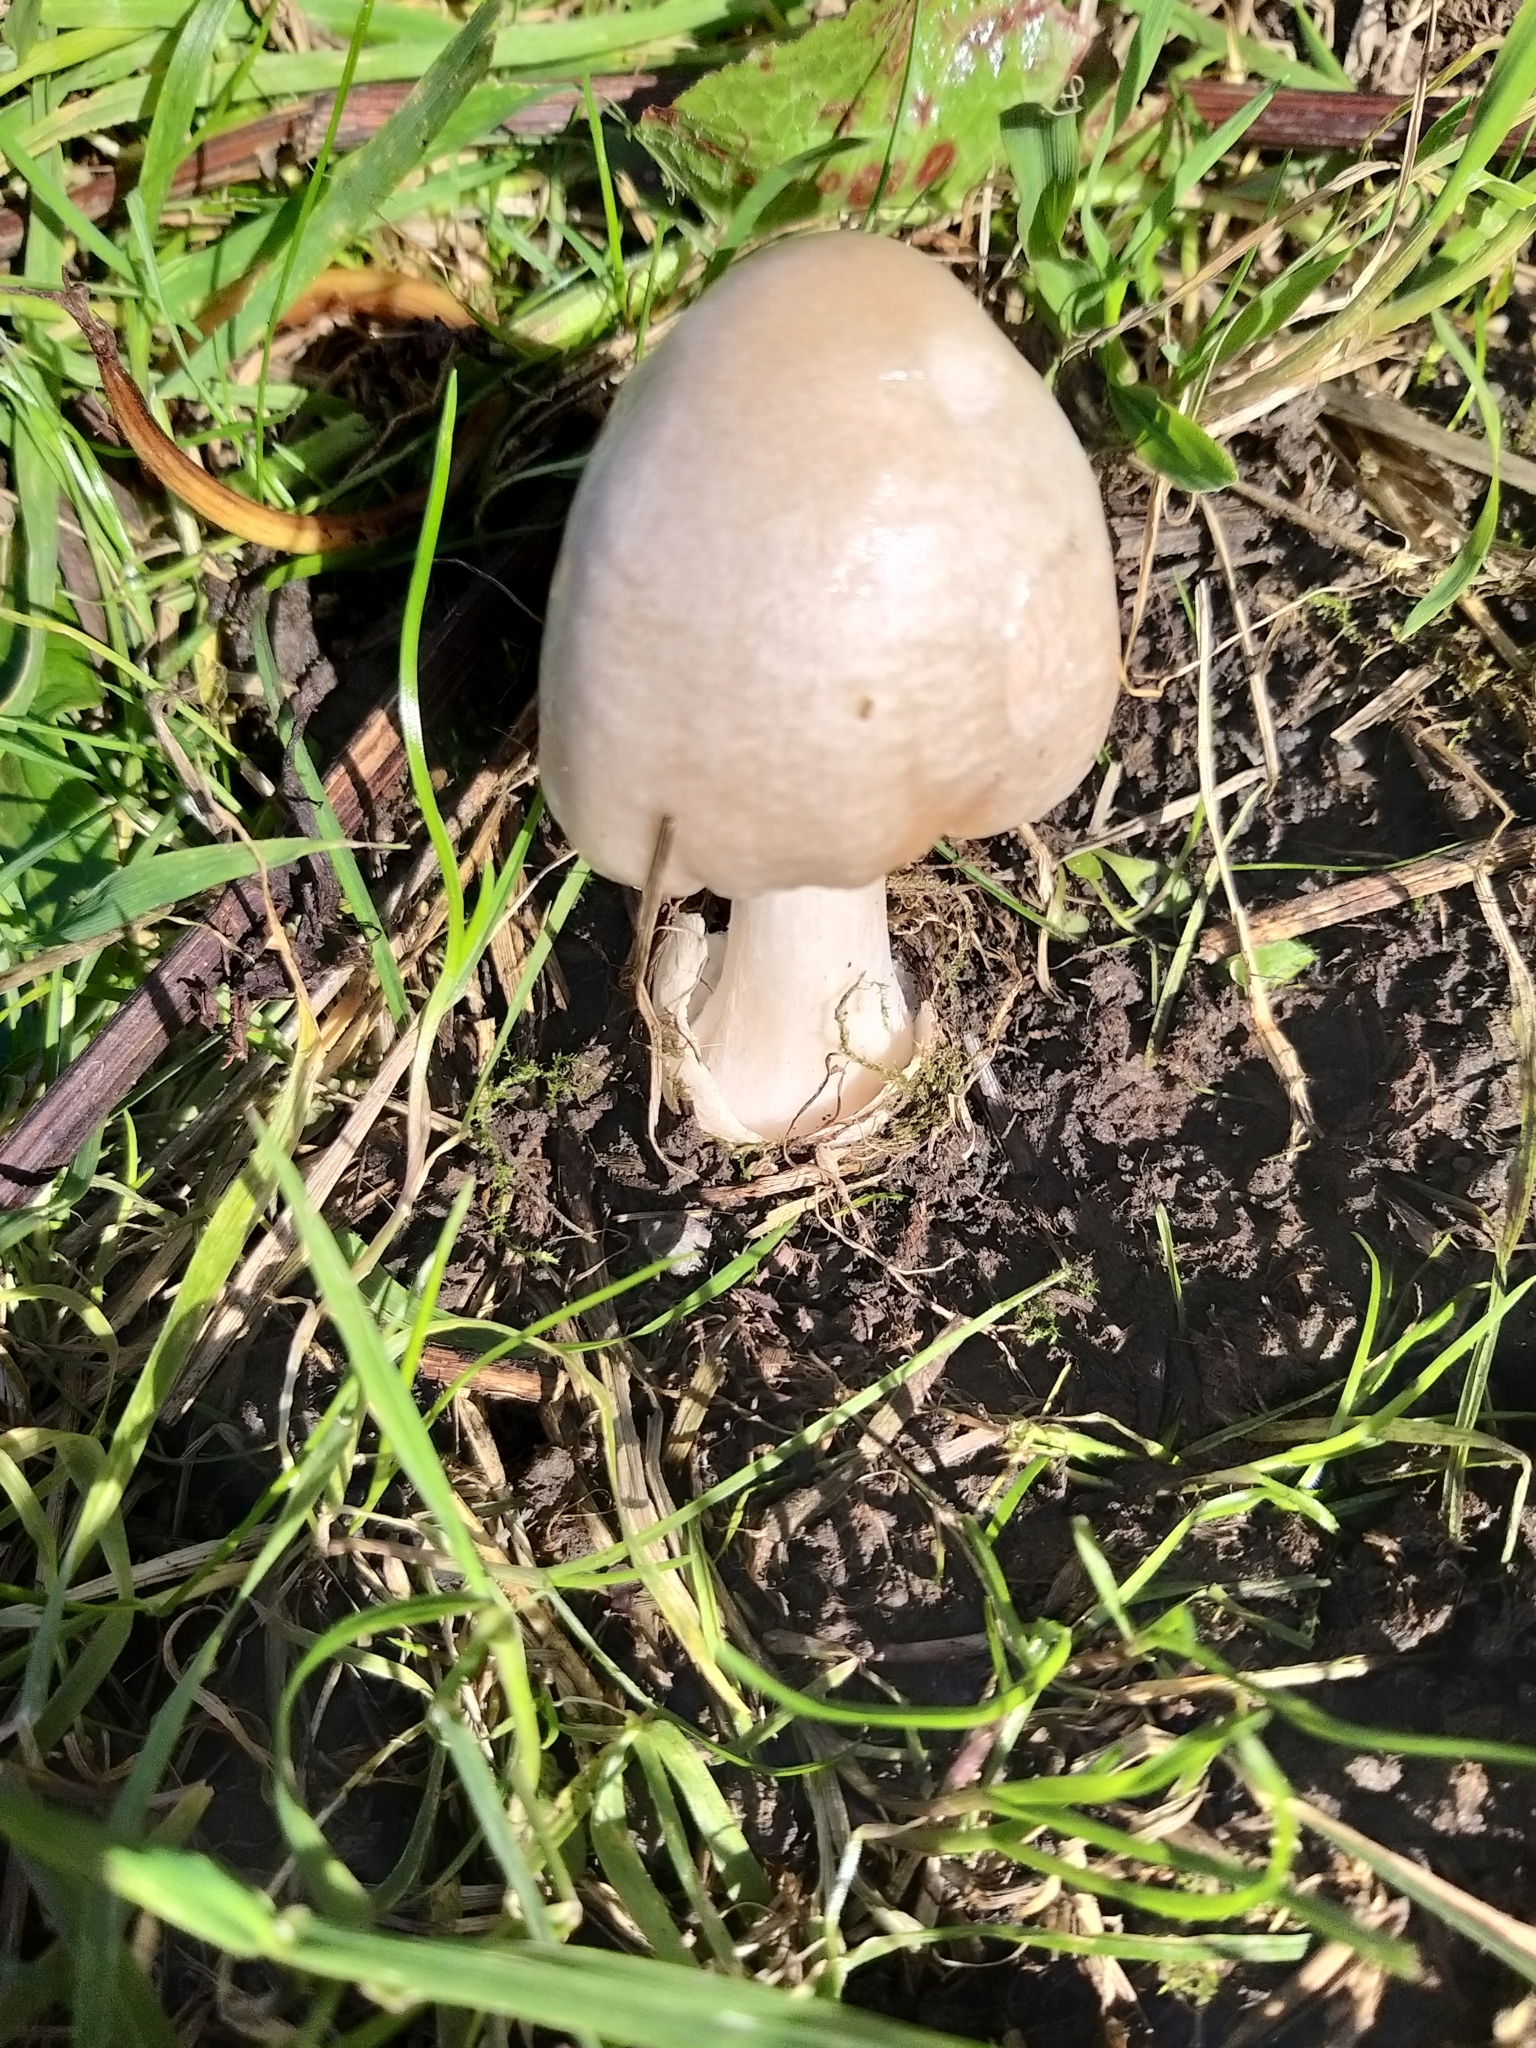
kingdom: Fungi
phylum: Basidiomycota
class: Agaricomycetes
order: Agaricales
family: Pluteaceae
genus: Volvopluteus
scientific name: Volvopluteus gloiocephalus
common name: Stubble rosegill
